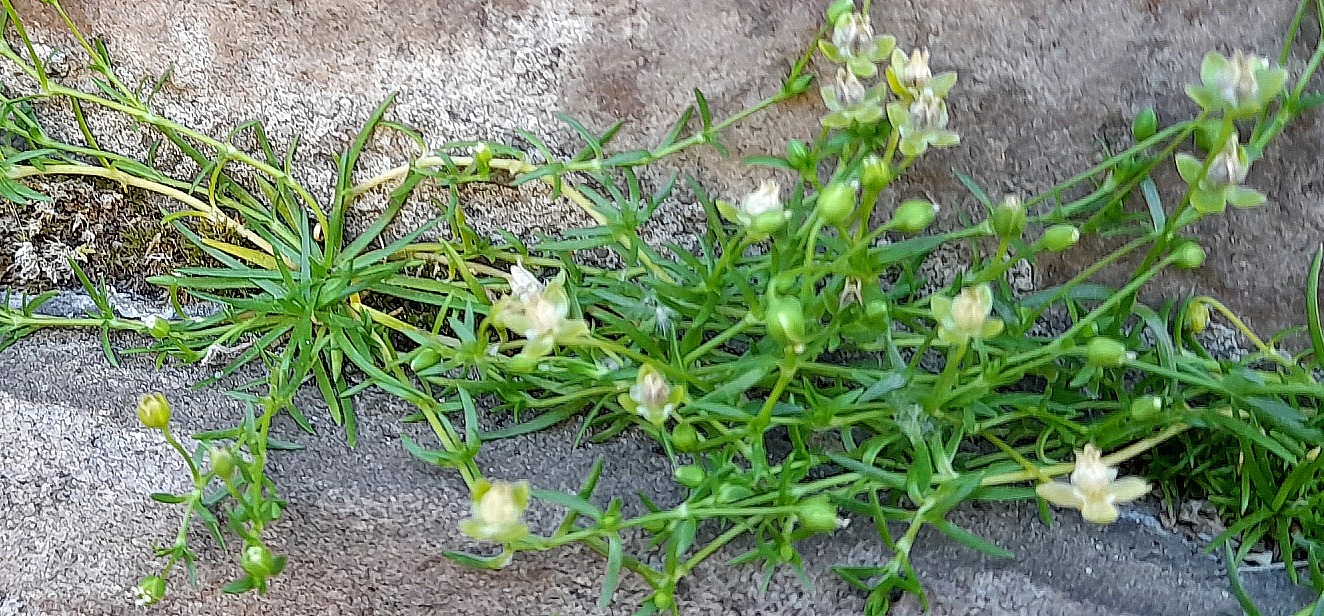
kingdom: Plantae
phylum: Tracheophyta
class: Magnoliopsida
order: Caryophyllales
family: Caryophyllaceae
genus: Sagina
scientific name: Sagina procumbens
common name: Procumbent pearlwort
